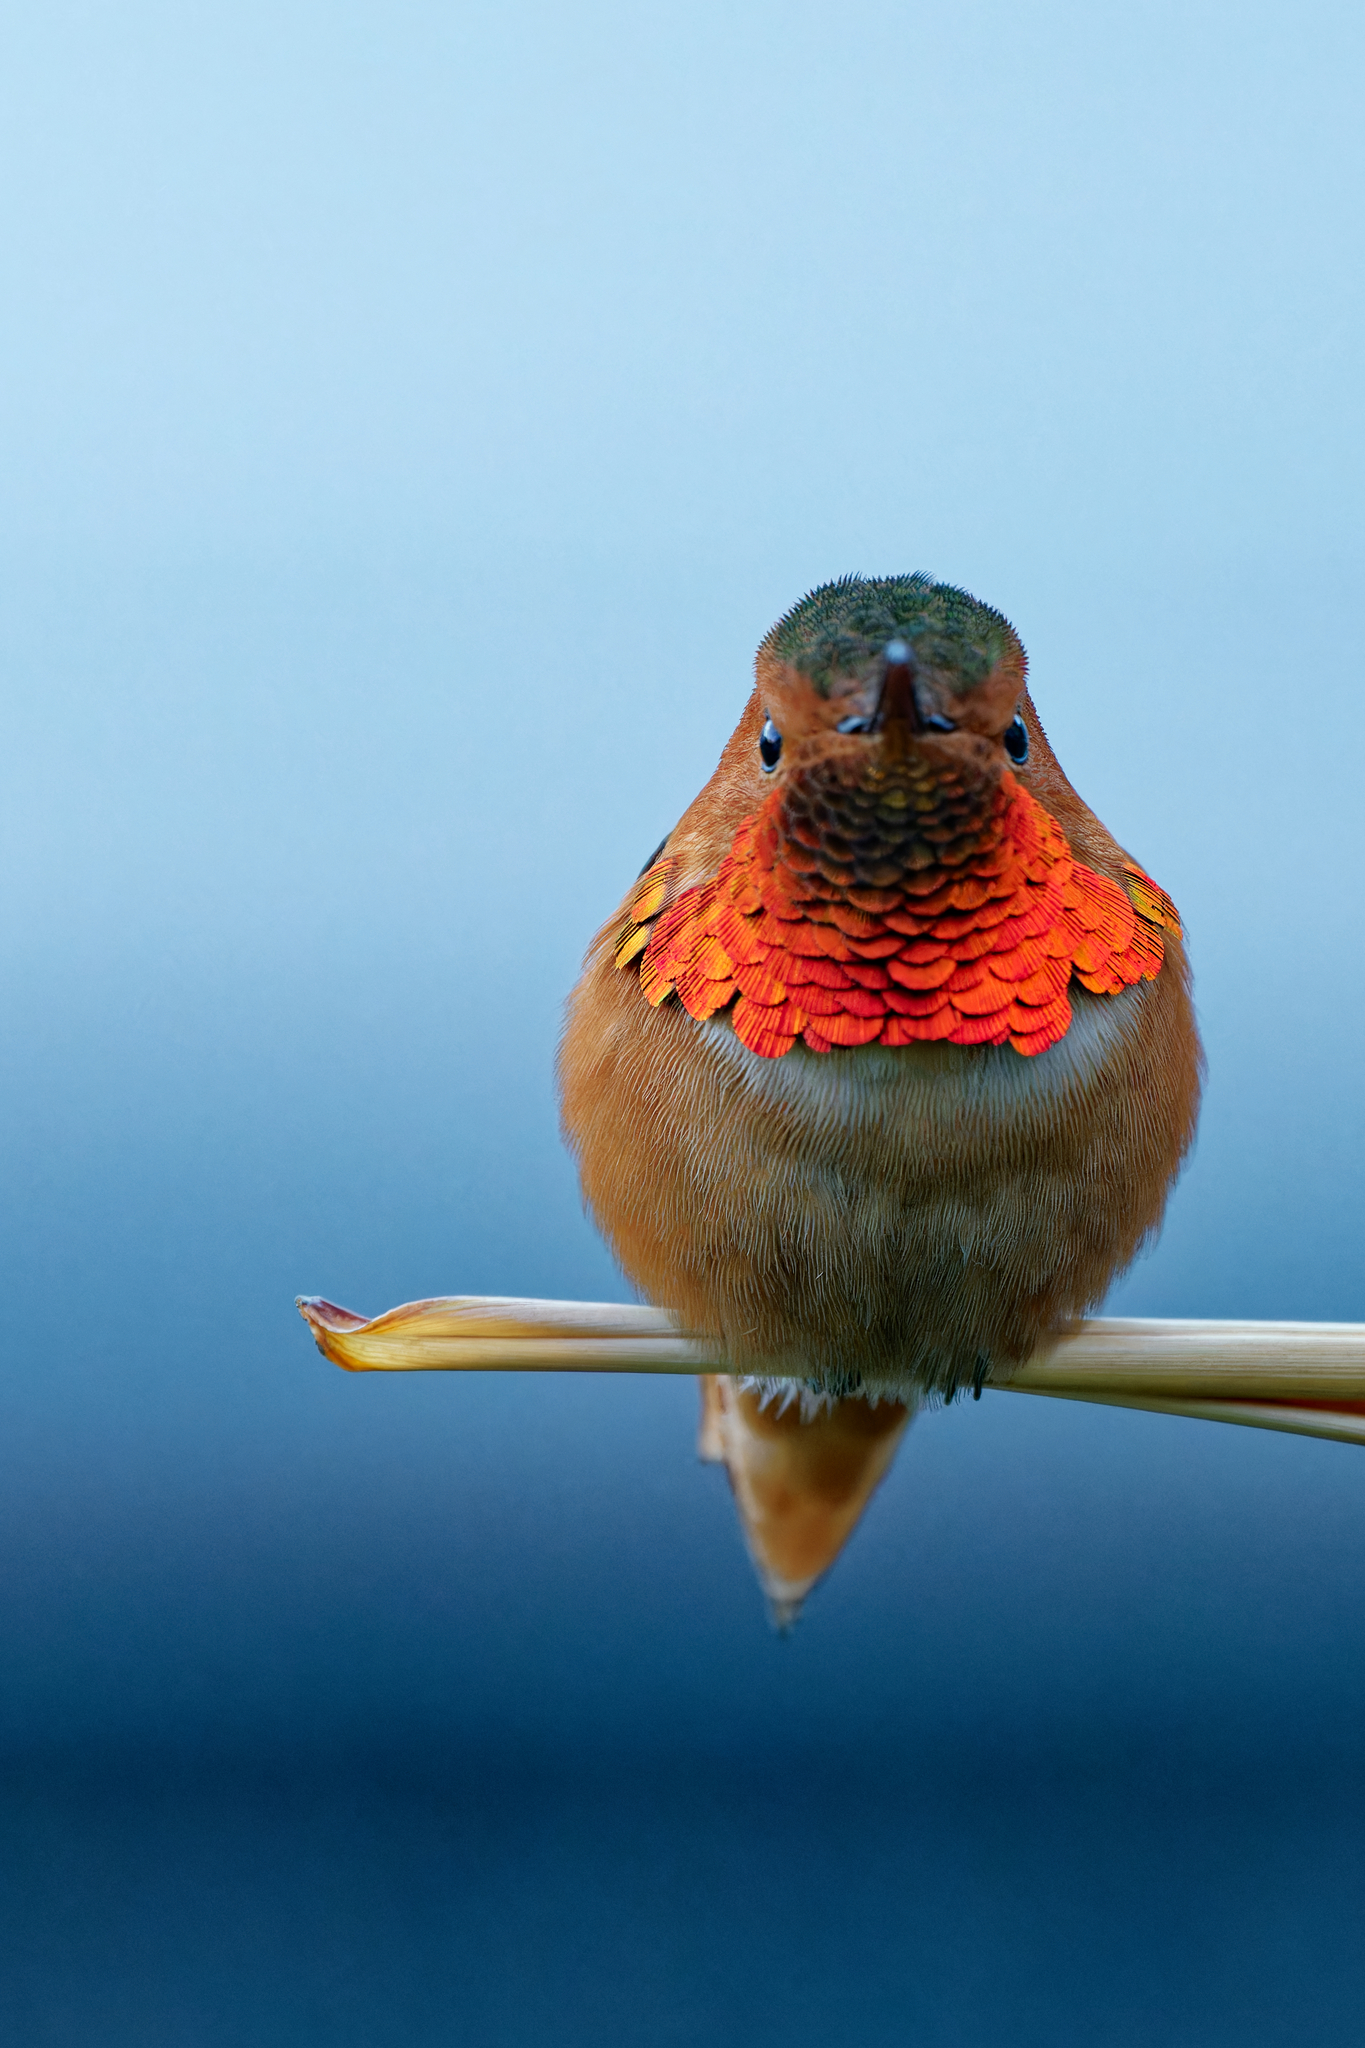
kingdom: Animalia
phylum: Chordata
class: Aves
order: Apodiformes
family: Trochilidae
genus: Selasphorus
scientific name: Selasphorus sasin
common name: Allen's hummingbird
